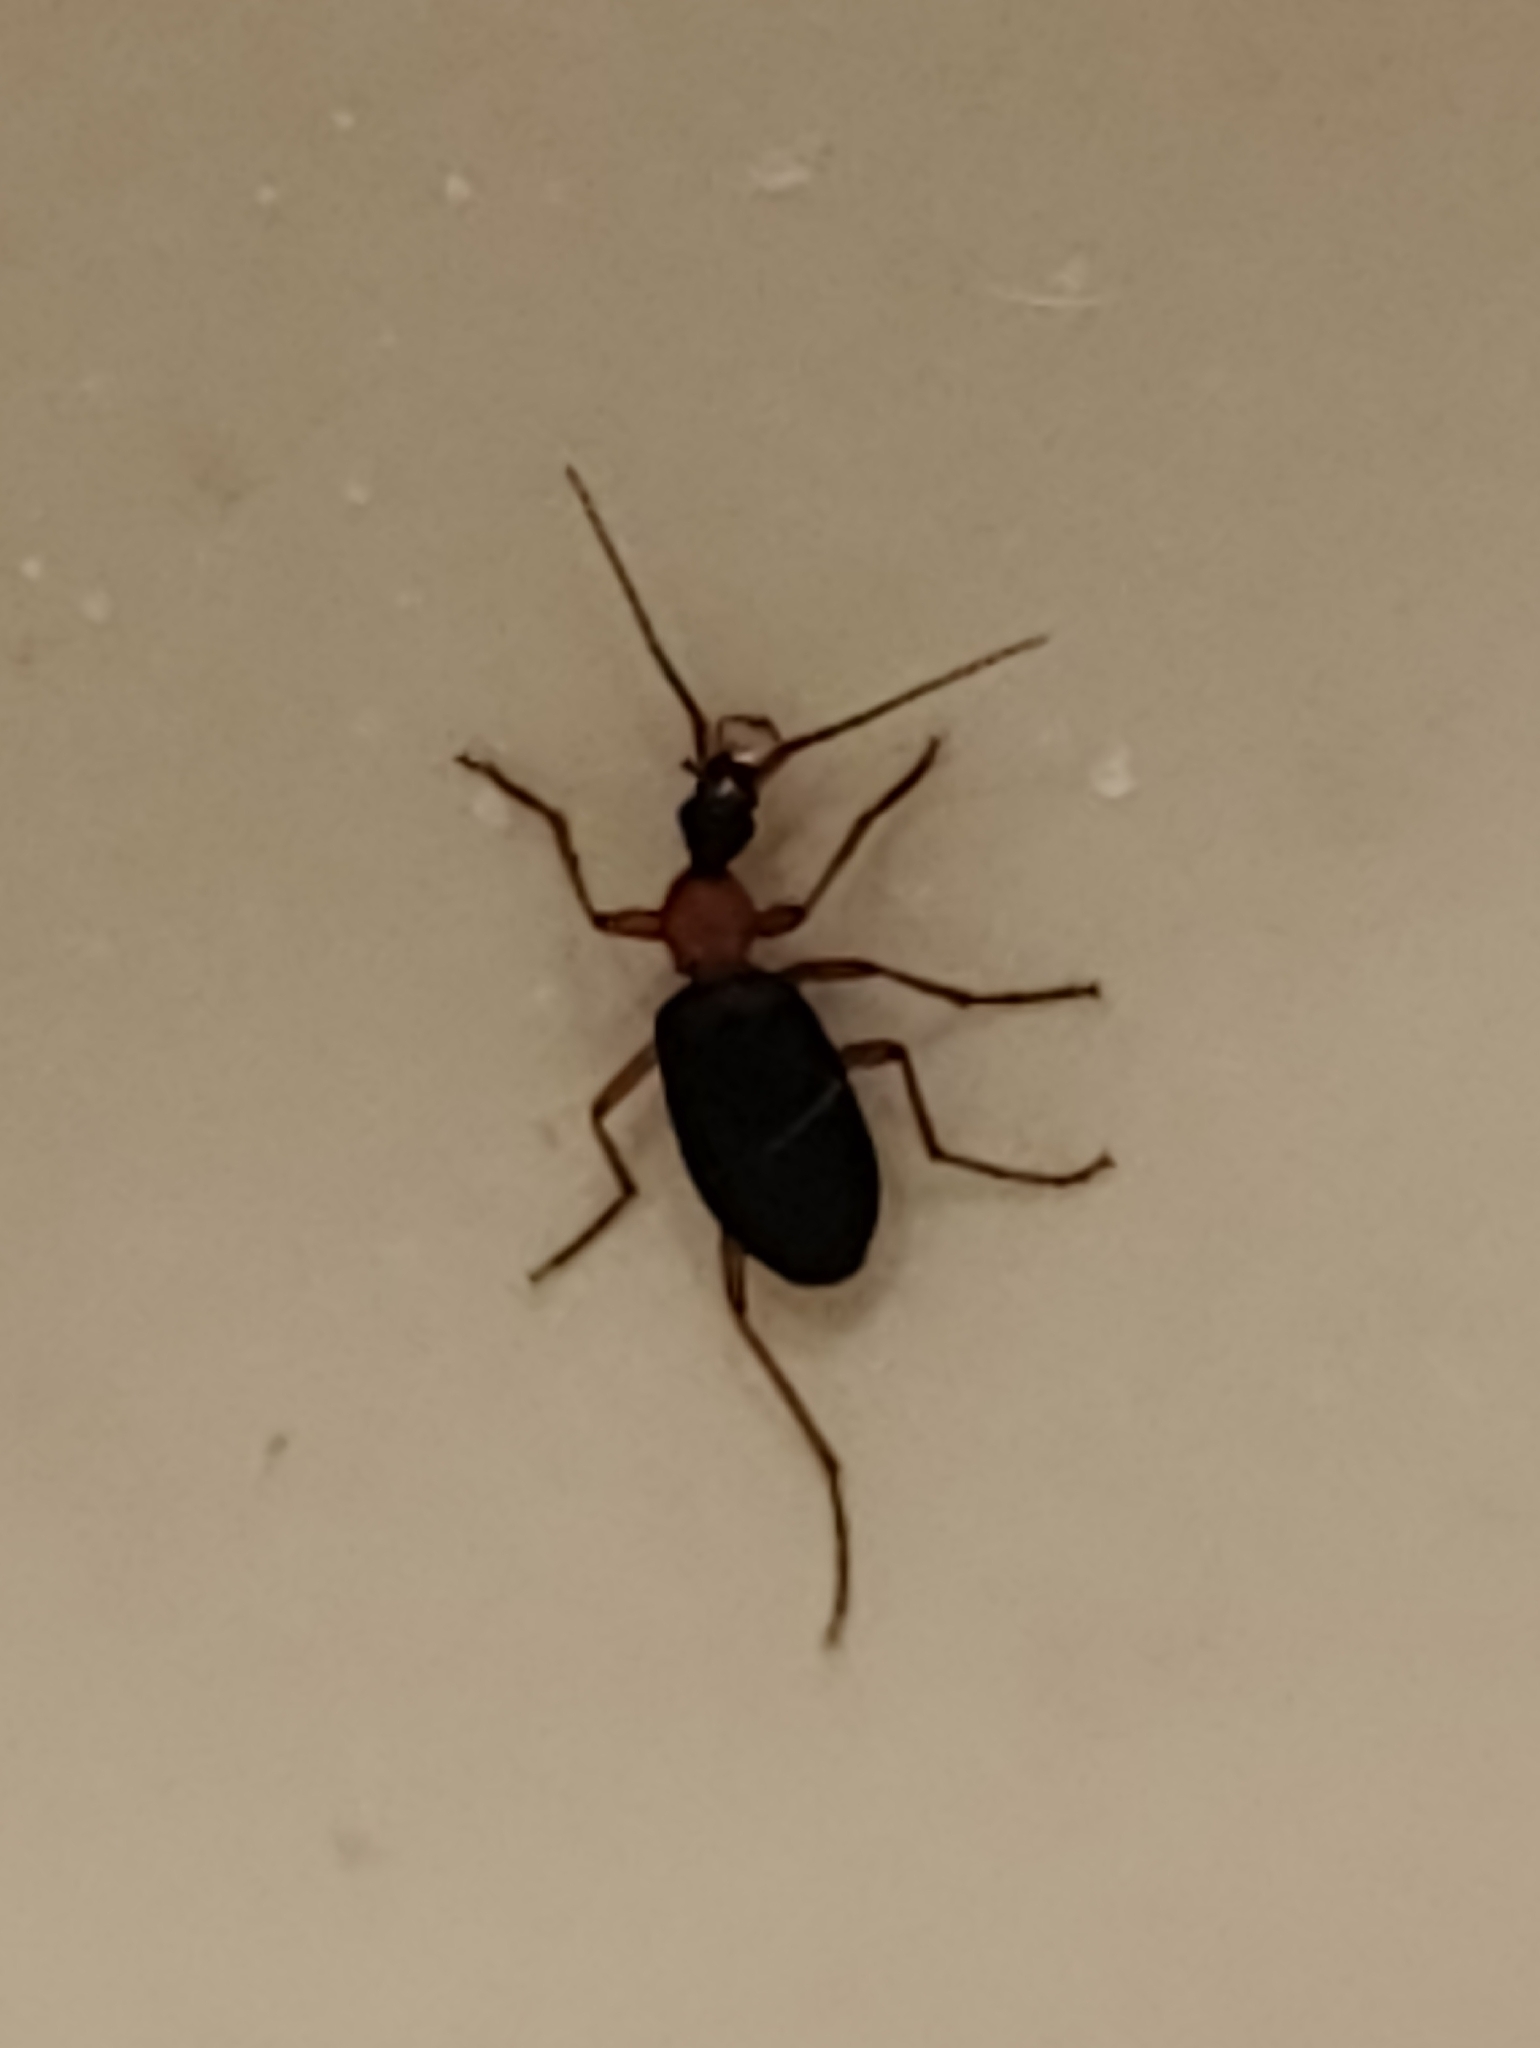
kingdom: Animalia
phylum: Arthropoda
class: Insecta
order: Coleoptera
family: Carabidae
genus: Galerita
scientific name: Galerita bicolor
